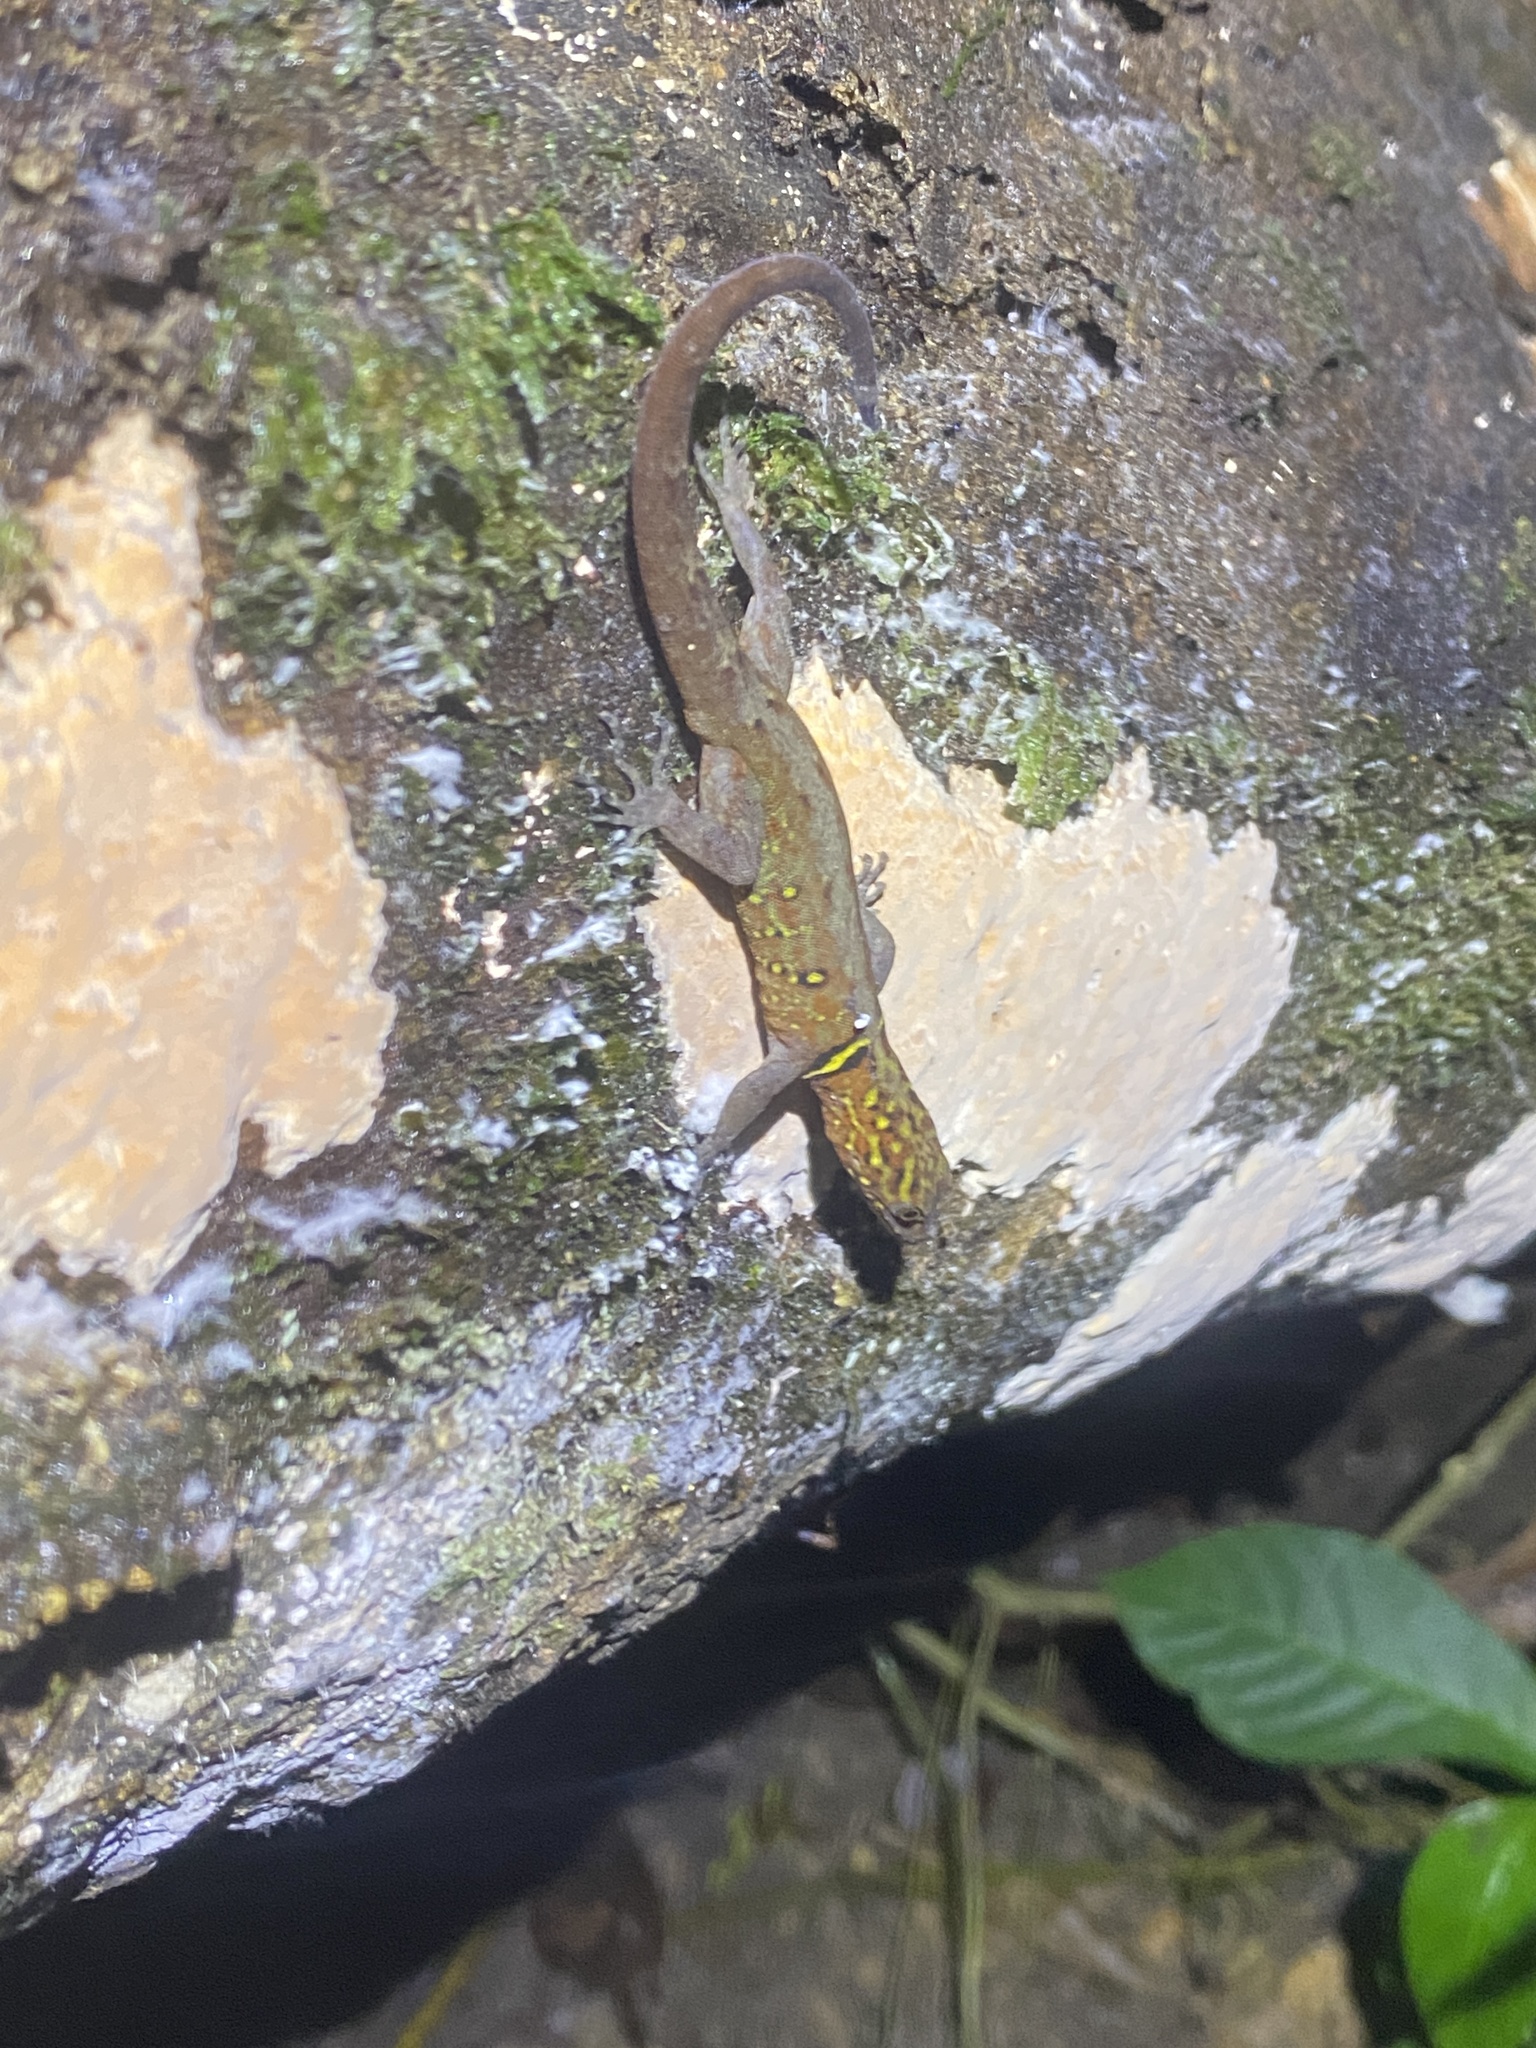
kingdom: Animalia
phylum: Chordata
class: Squamata
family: Sphaerodactylidae
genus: Gonatodes
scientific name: Gonatodes ceciliae
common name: Brilliant south american gecko
